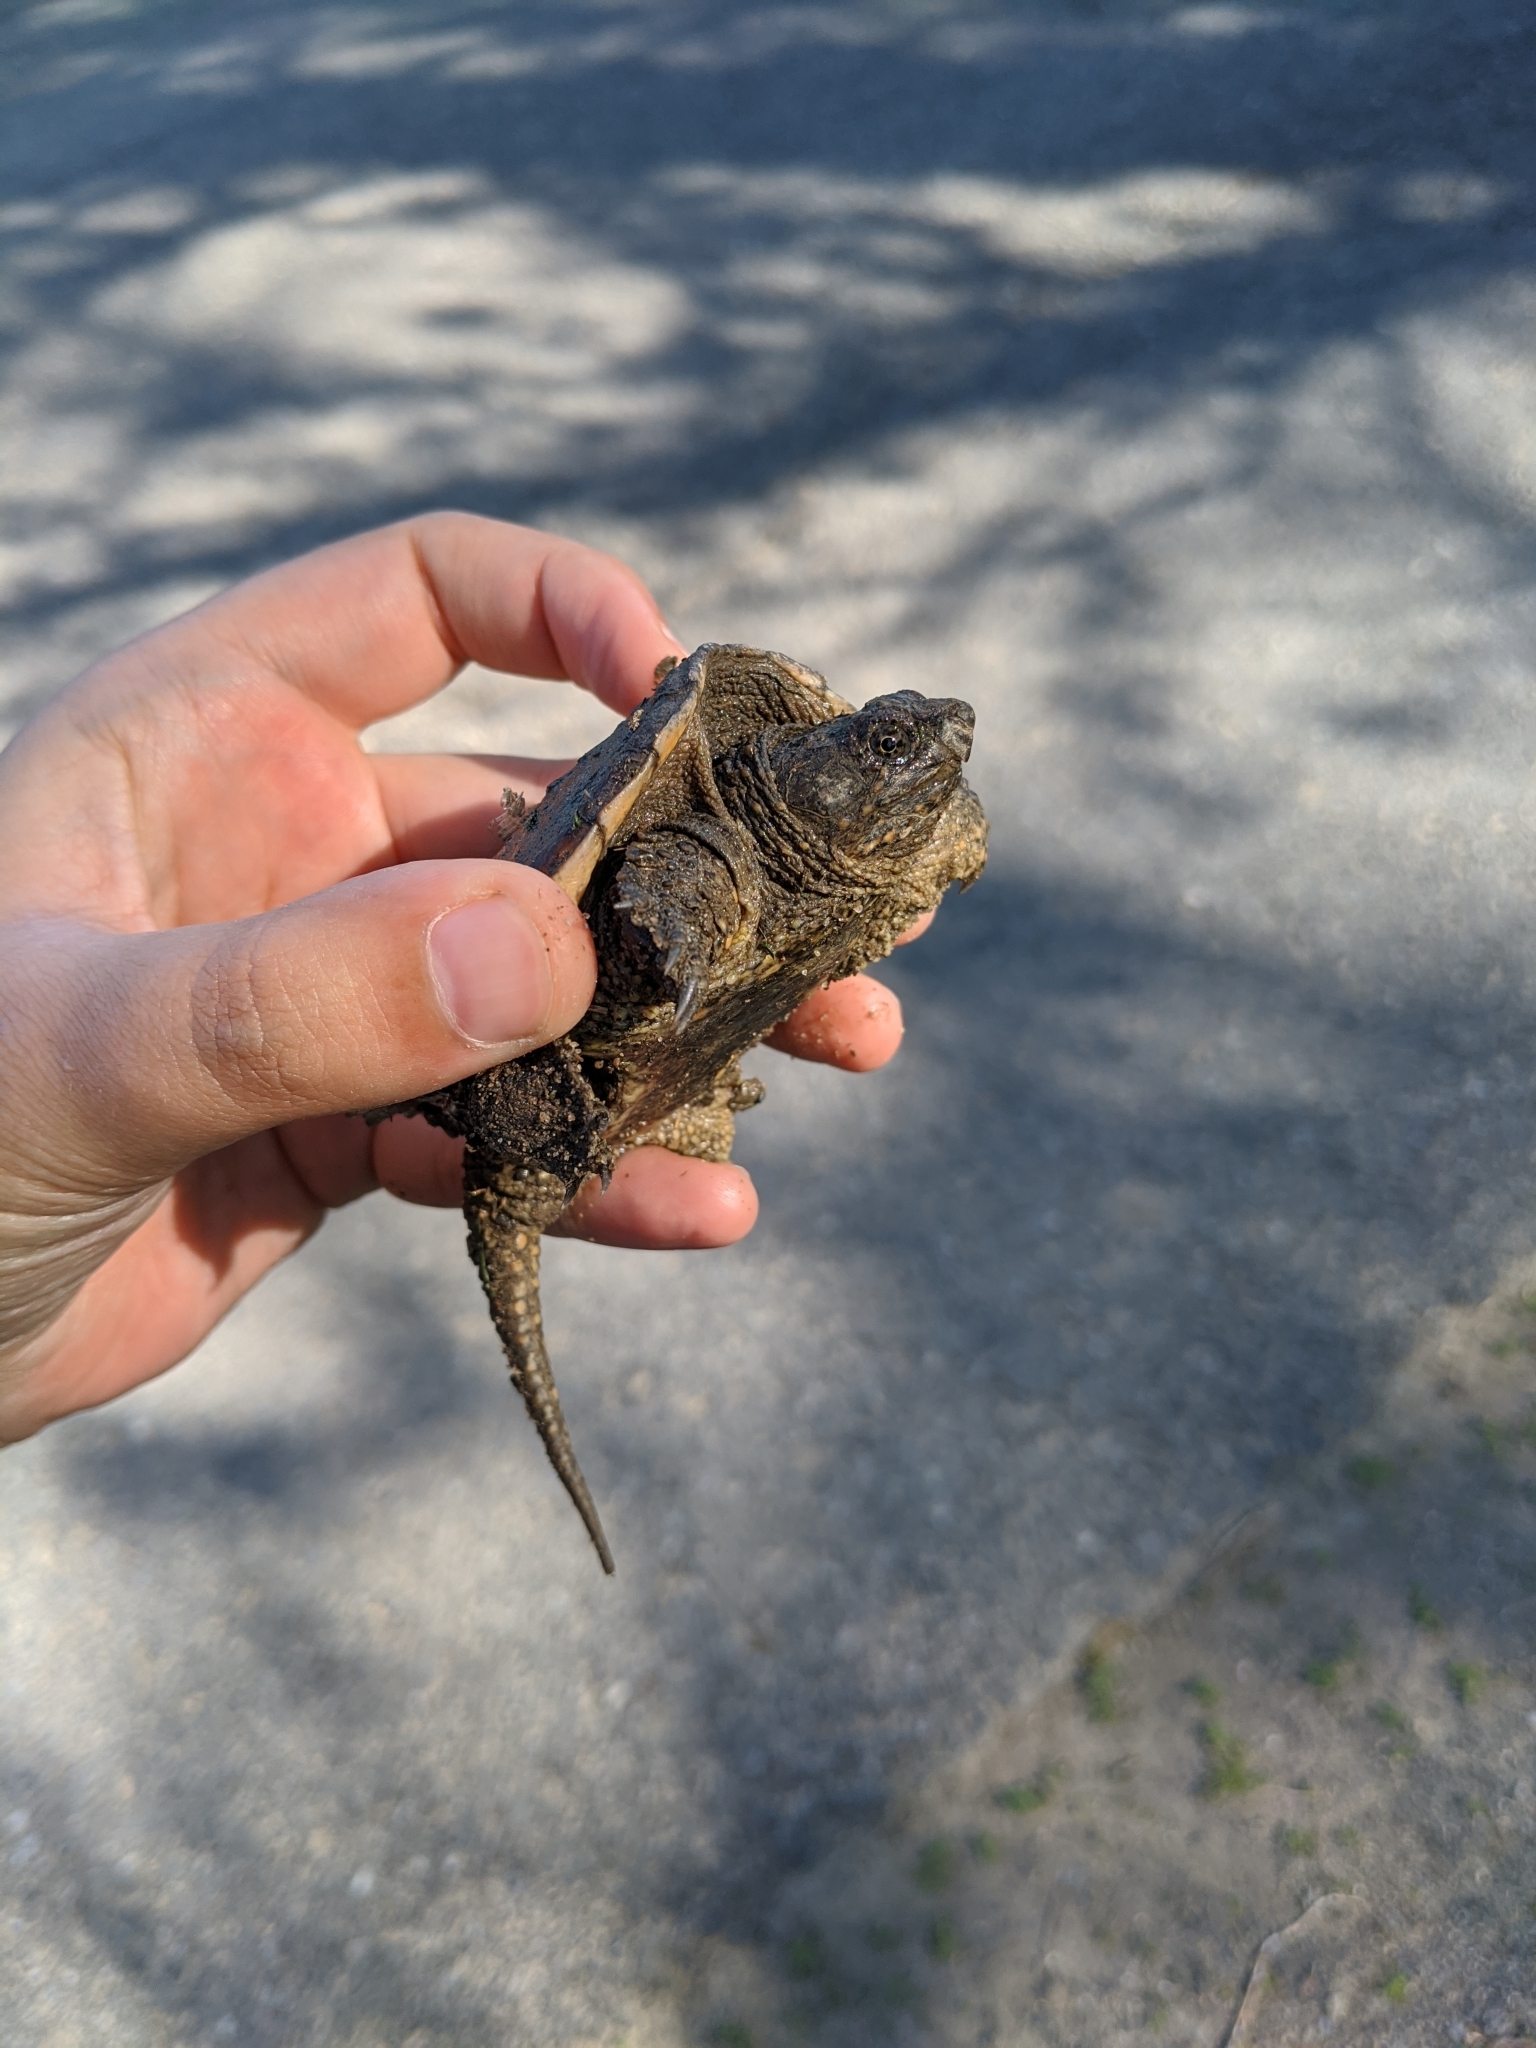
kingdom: Animalia
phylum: Chordata
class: Testudines
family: Chelydridae
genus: Chelydra
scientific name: Chelydra serpentina
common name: Common snapping turtle
